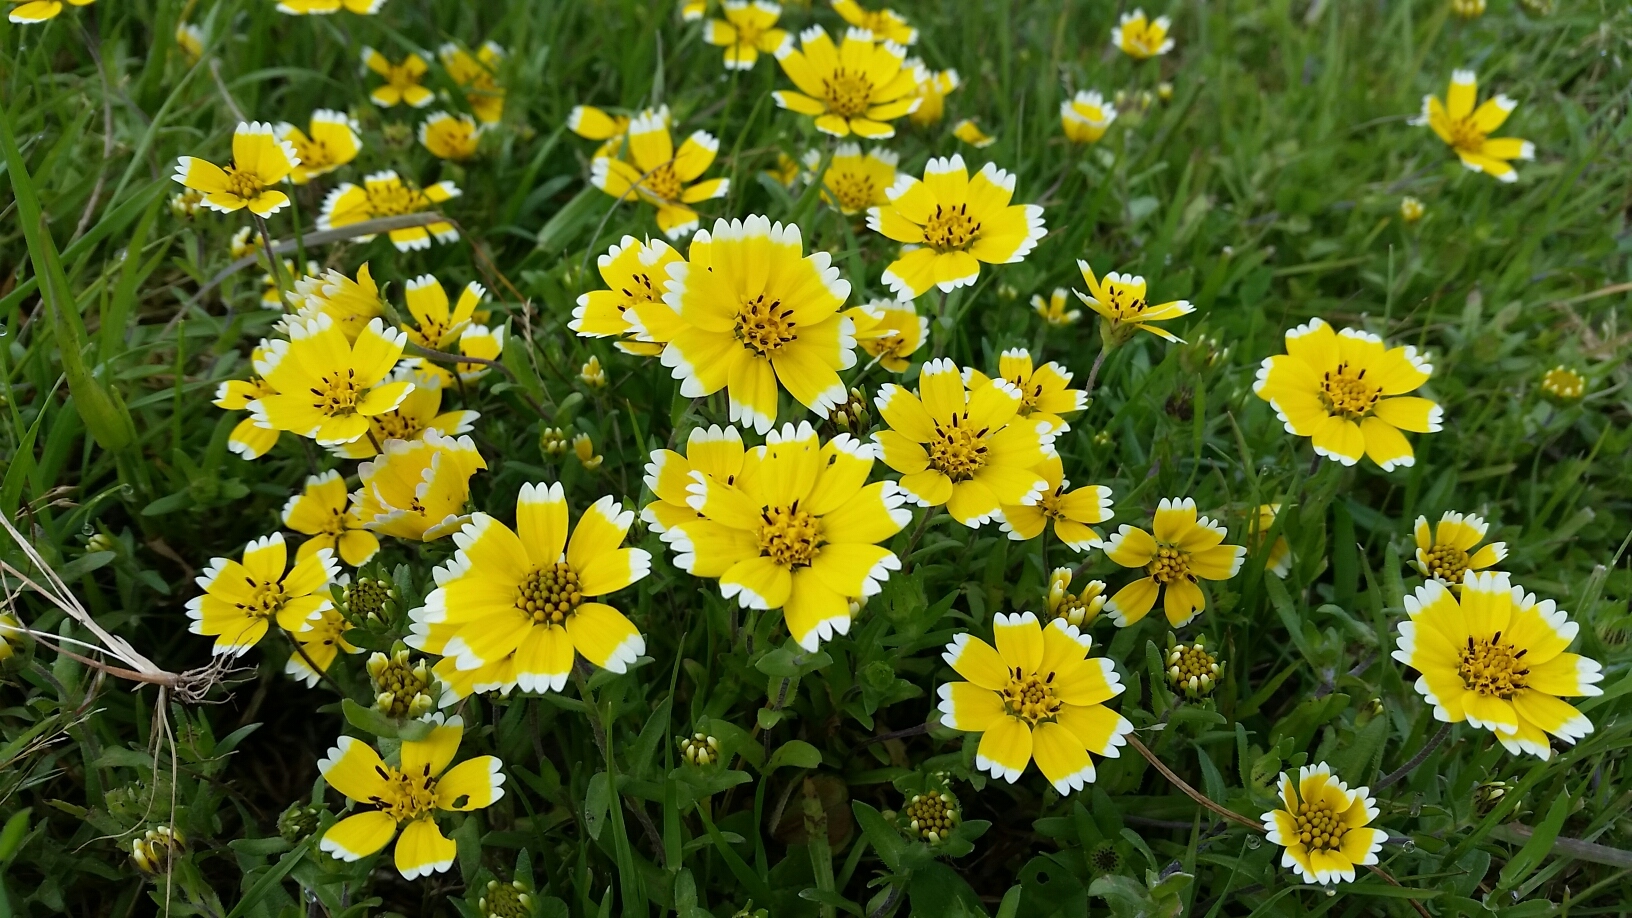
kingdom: Plantae
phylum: Tracheophyta
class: Magnoliopsida
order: Asterales
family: Asteraceae
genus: Layia
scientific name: Layia chrysanthemoides
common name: Smooth layia
